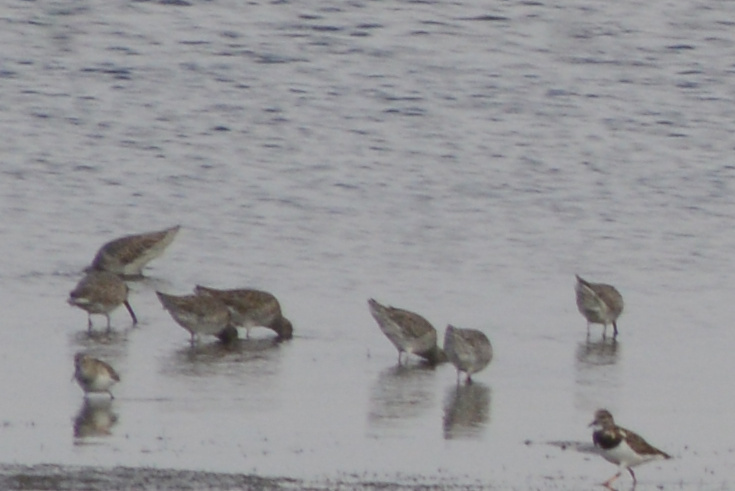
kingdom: Animalia
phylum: Chordata
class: Aves
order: Charadriiformes
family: Scolopacidae
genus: Limnodromus
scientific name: Limnodromus
